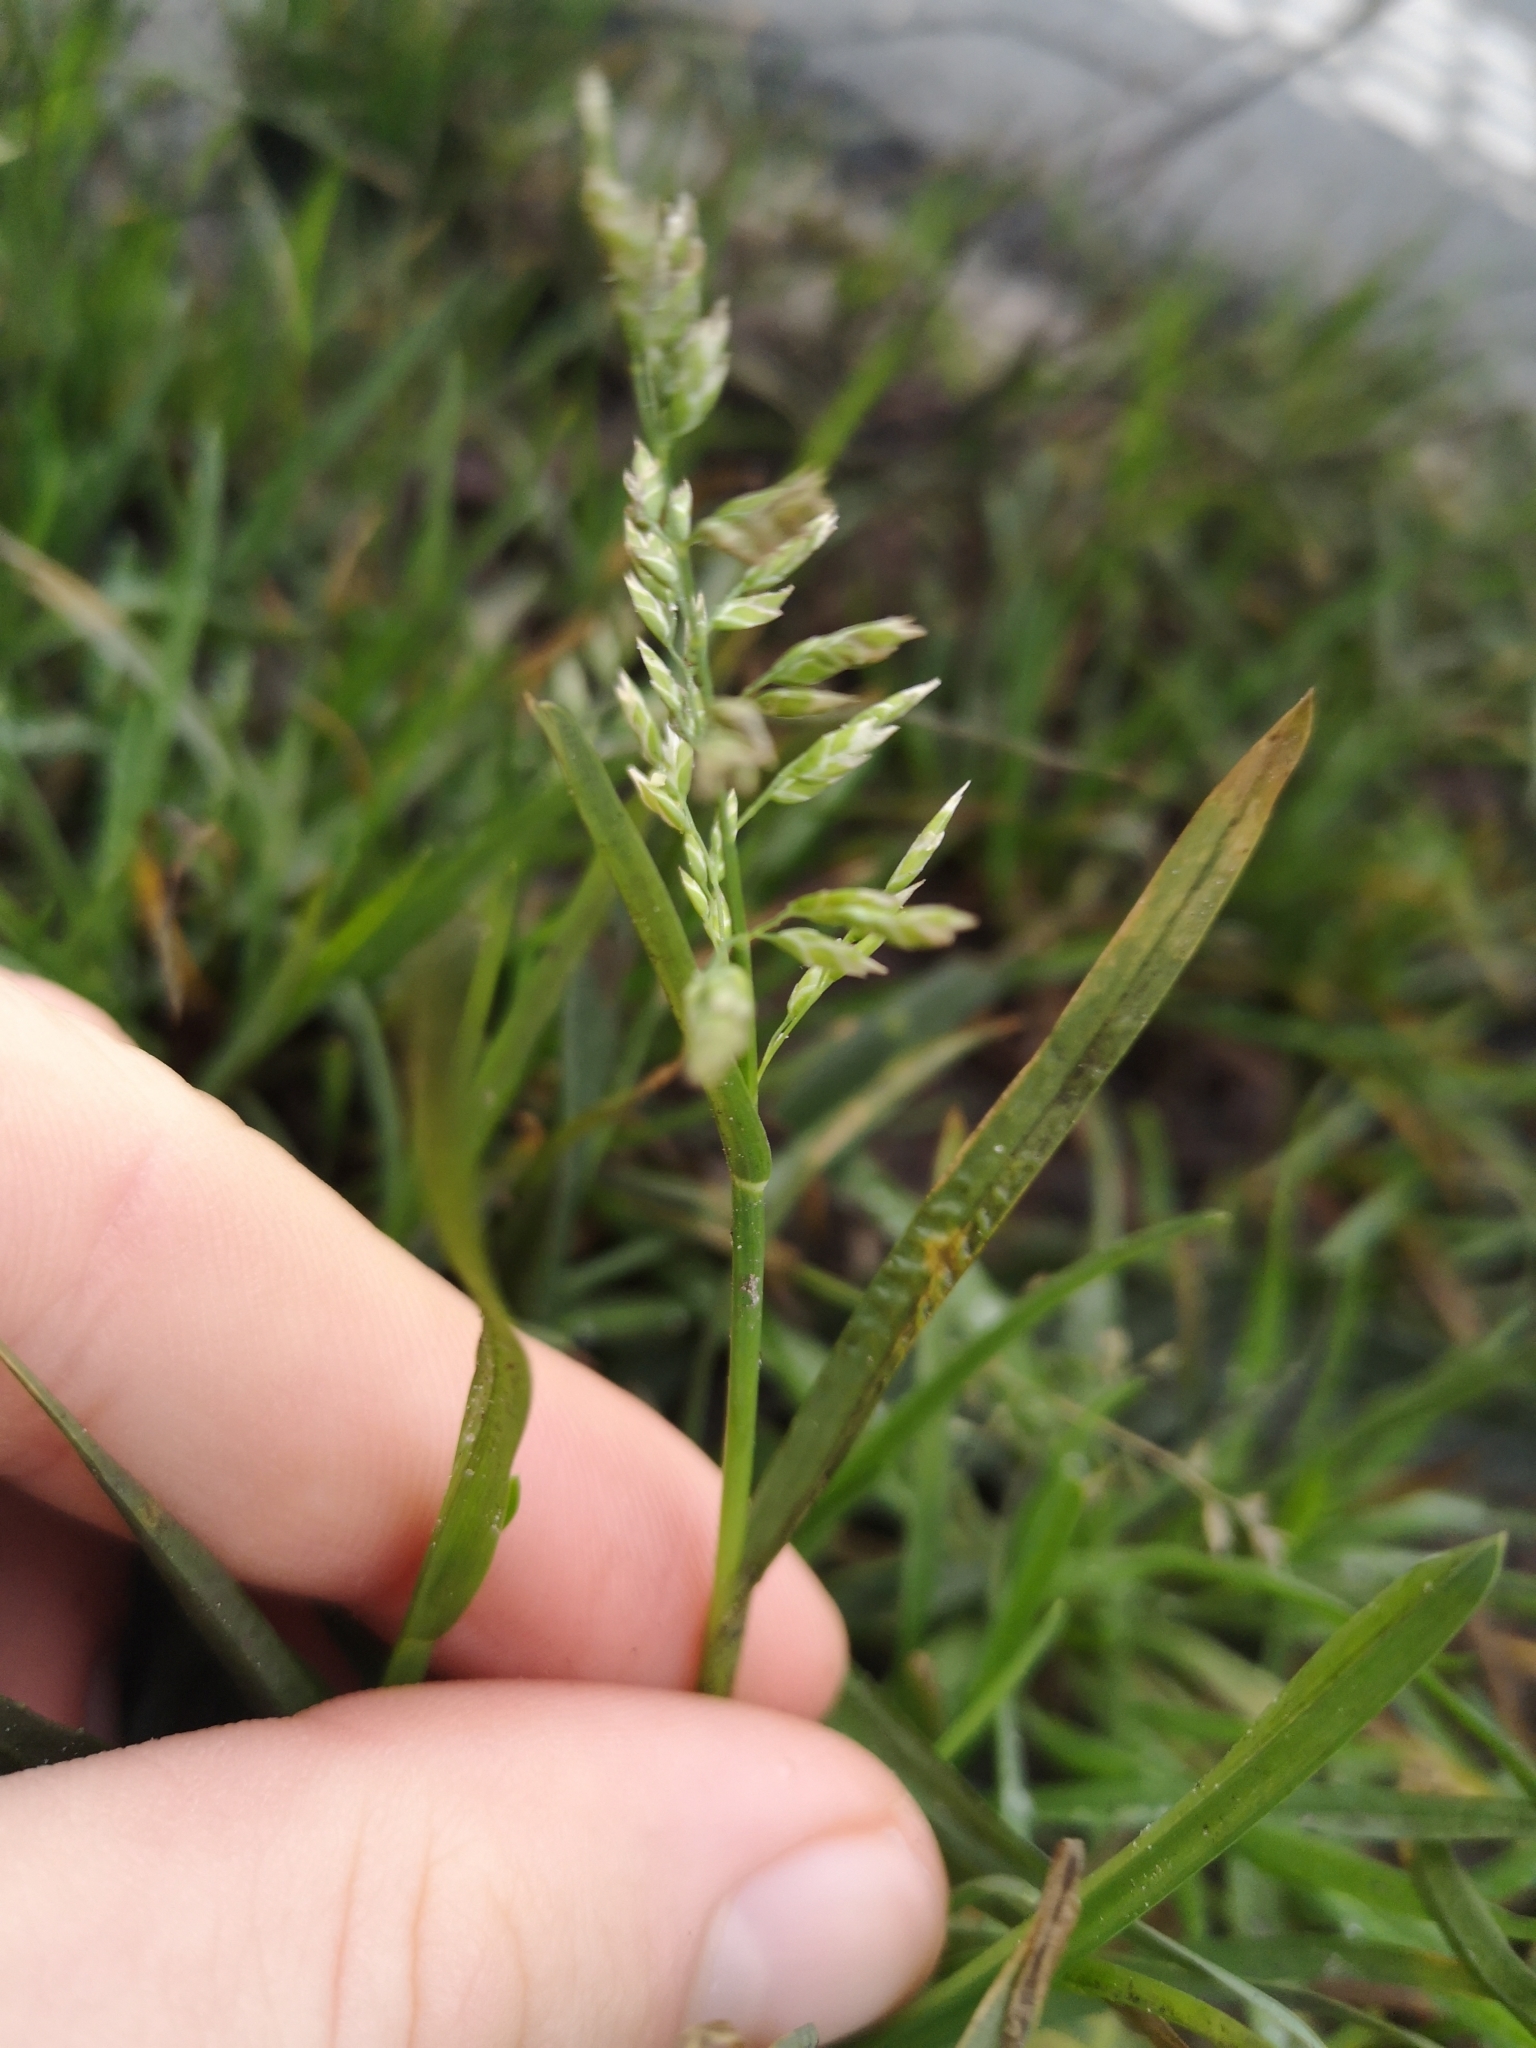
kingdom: Plantae
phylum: Tracheophyta
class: Liliopsida
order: Poales
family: Poaceae
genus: Poa
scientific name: Poa annua
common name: Annual bluegrass
